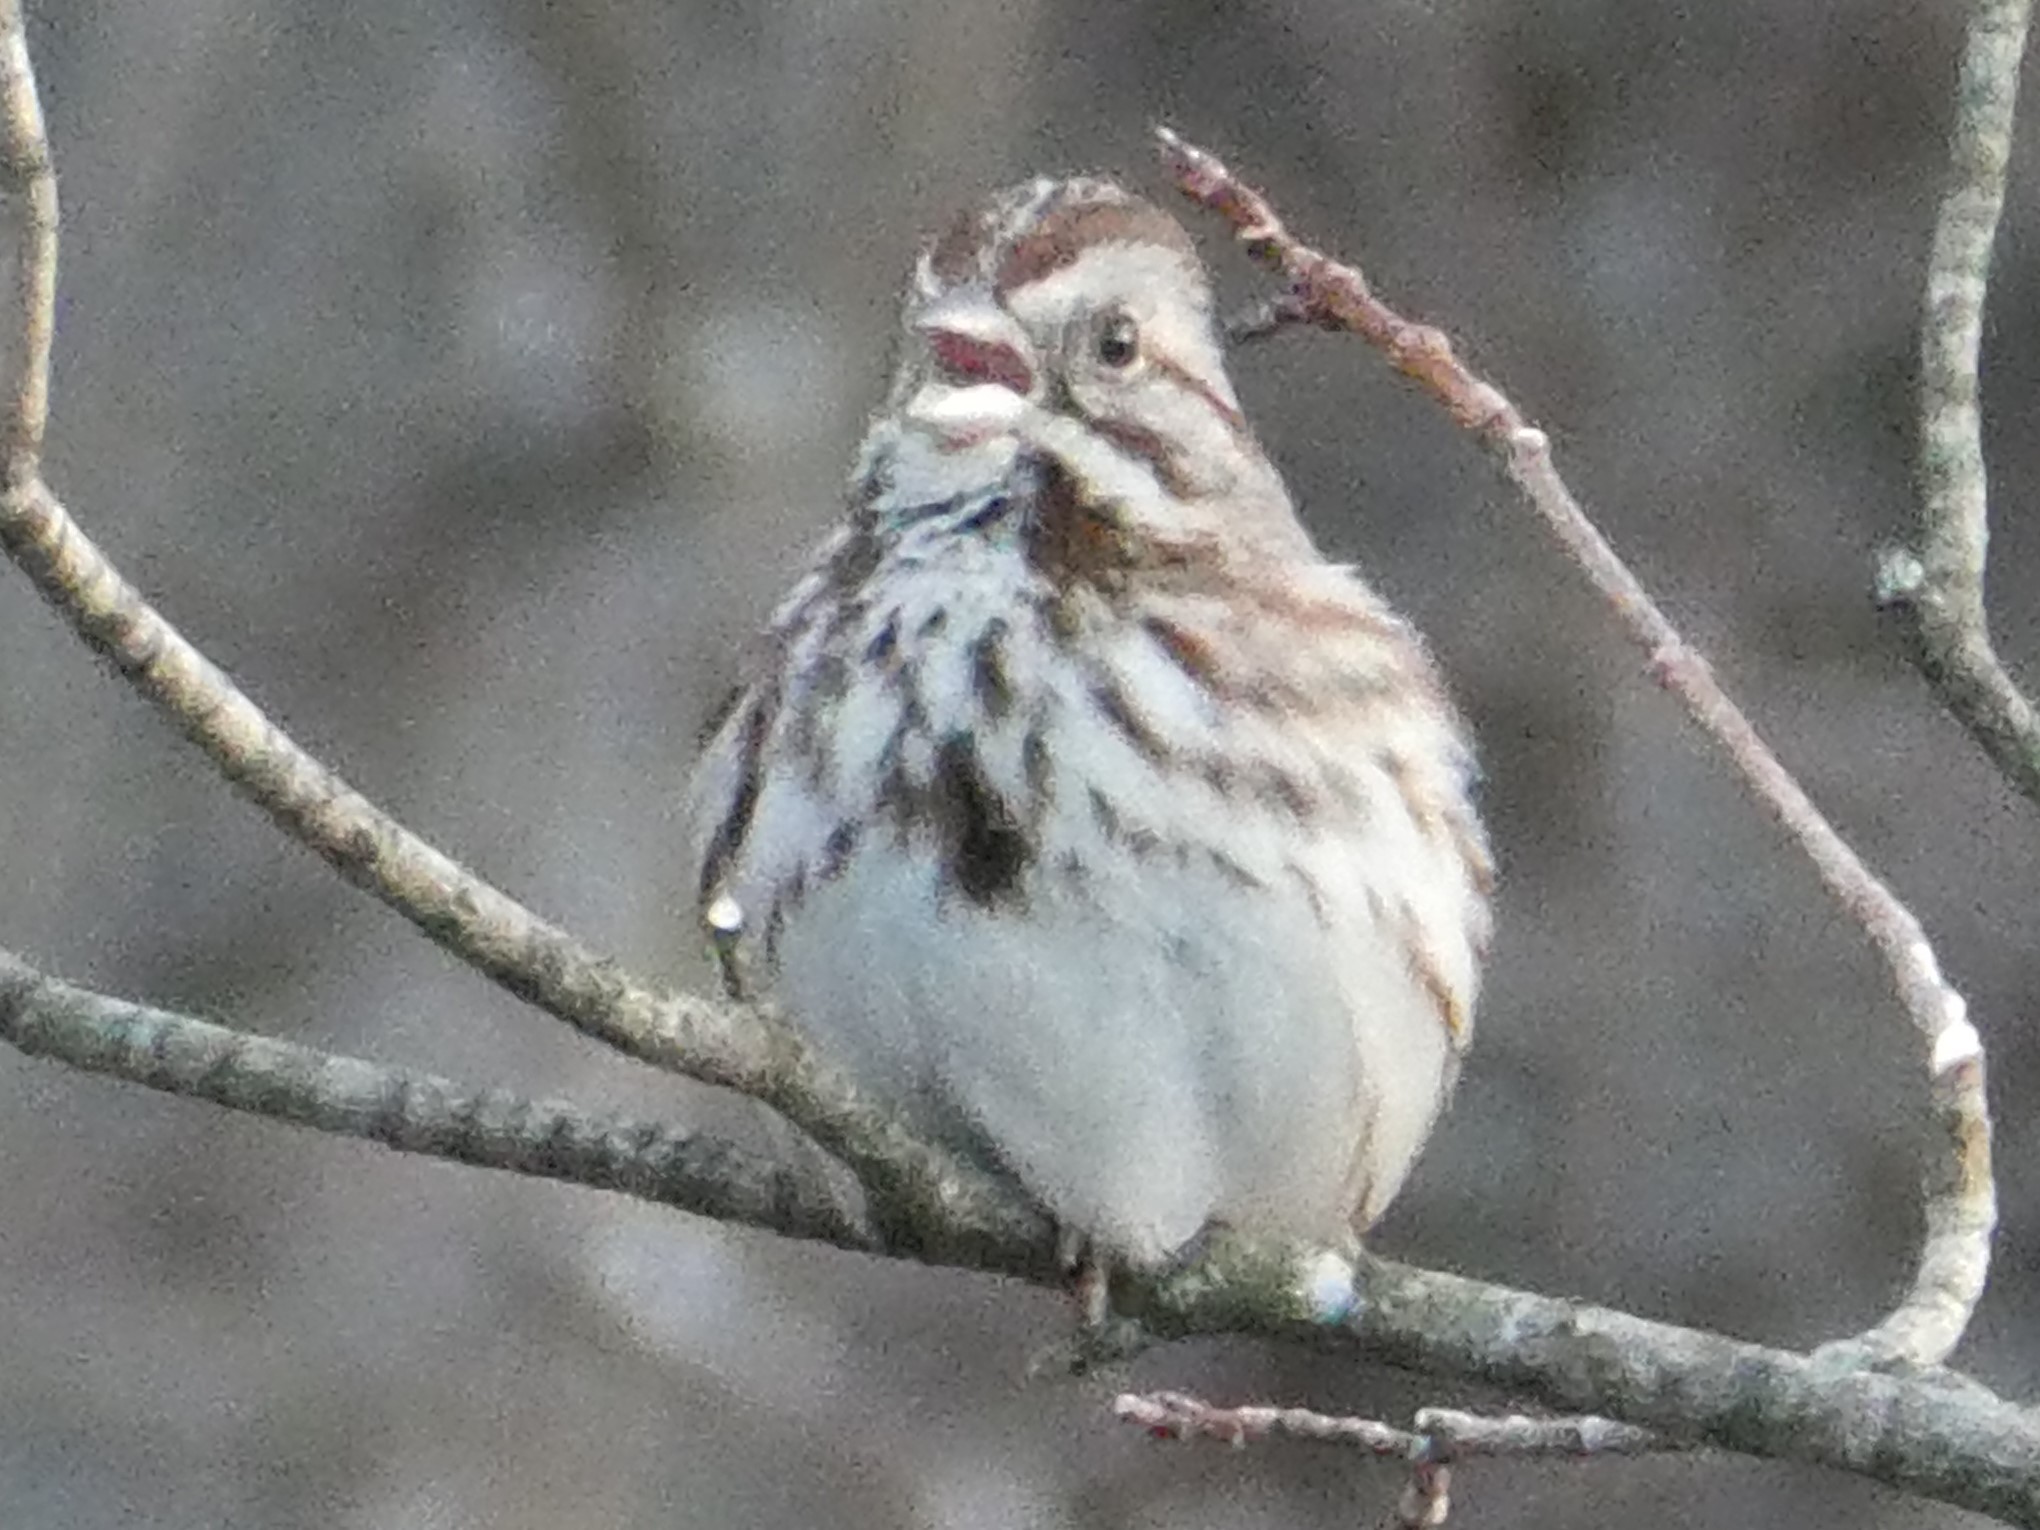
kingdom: Animalia
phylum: Chordata
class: Aves
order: Passeriformes
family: Passerellidae
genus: Melospiza
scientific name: Melospiza melodia
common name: Song sparrow
